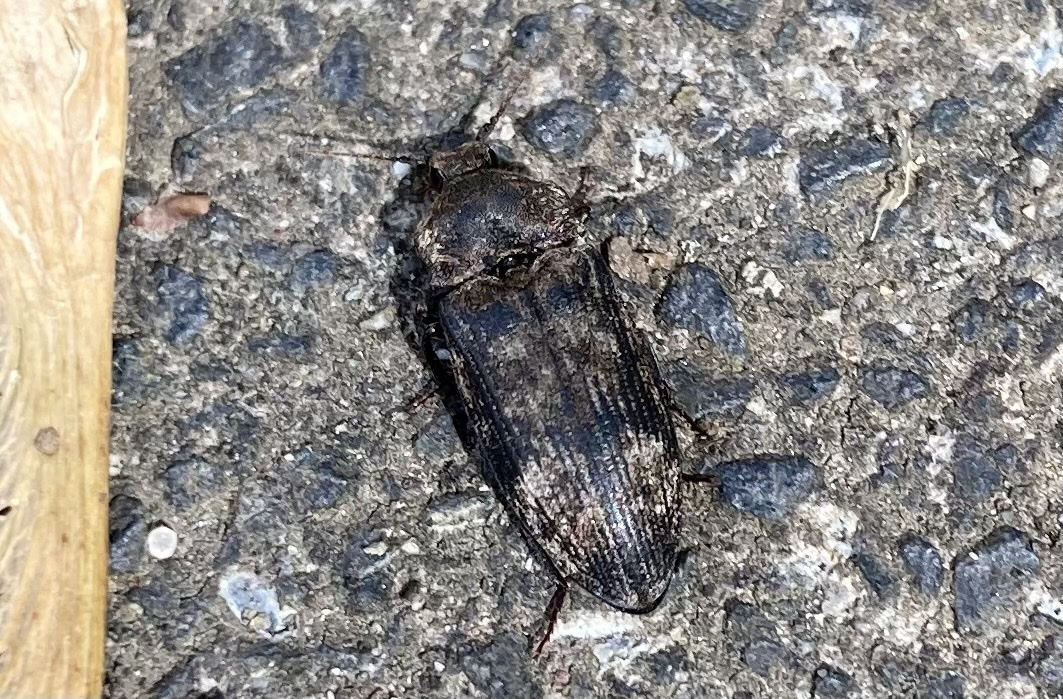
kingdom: Animalia
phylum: Arthropoda
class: Insecta
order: Coleoptera
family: Elateridae
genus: Agrypnus
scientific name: Agrypnus murinus
